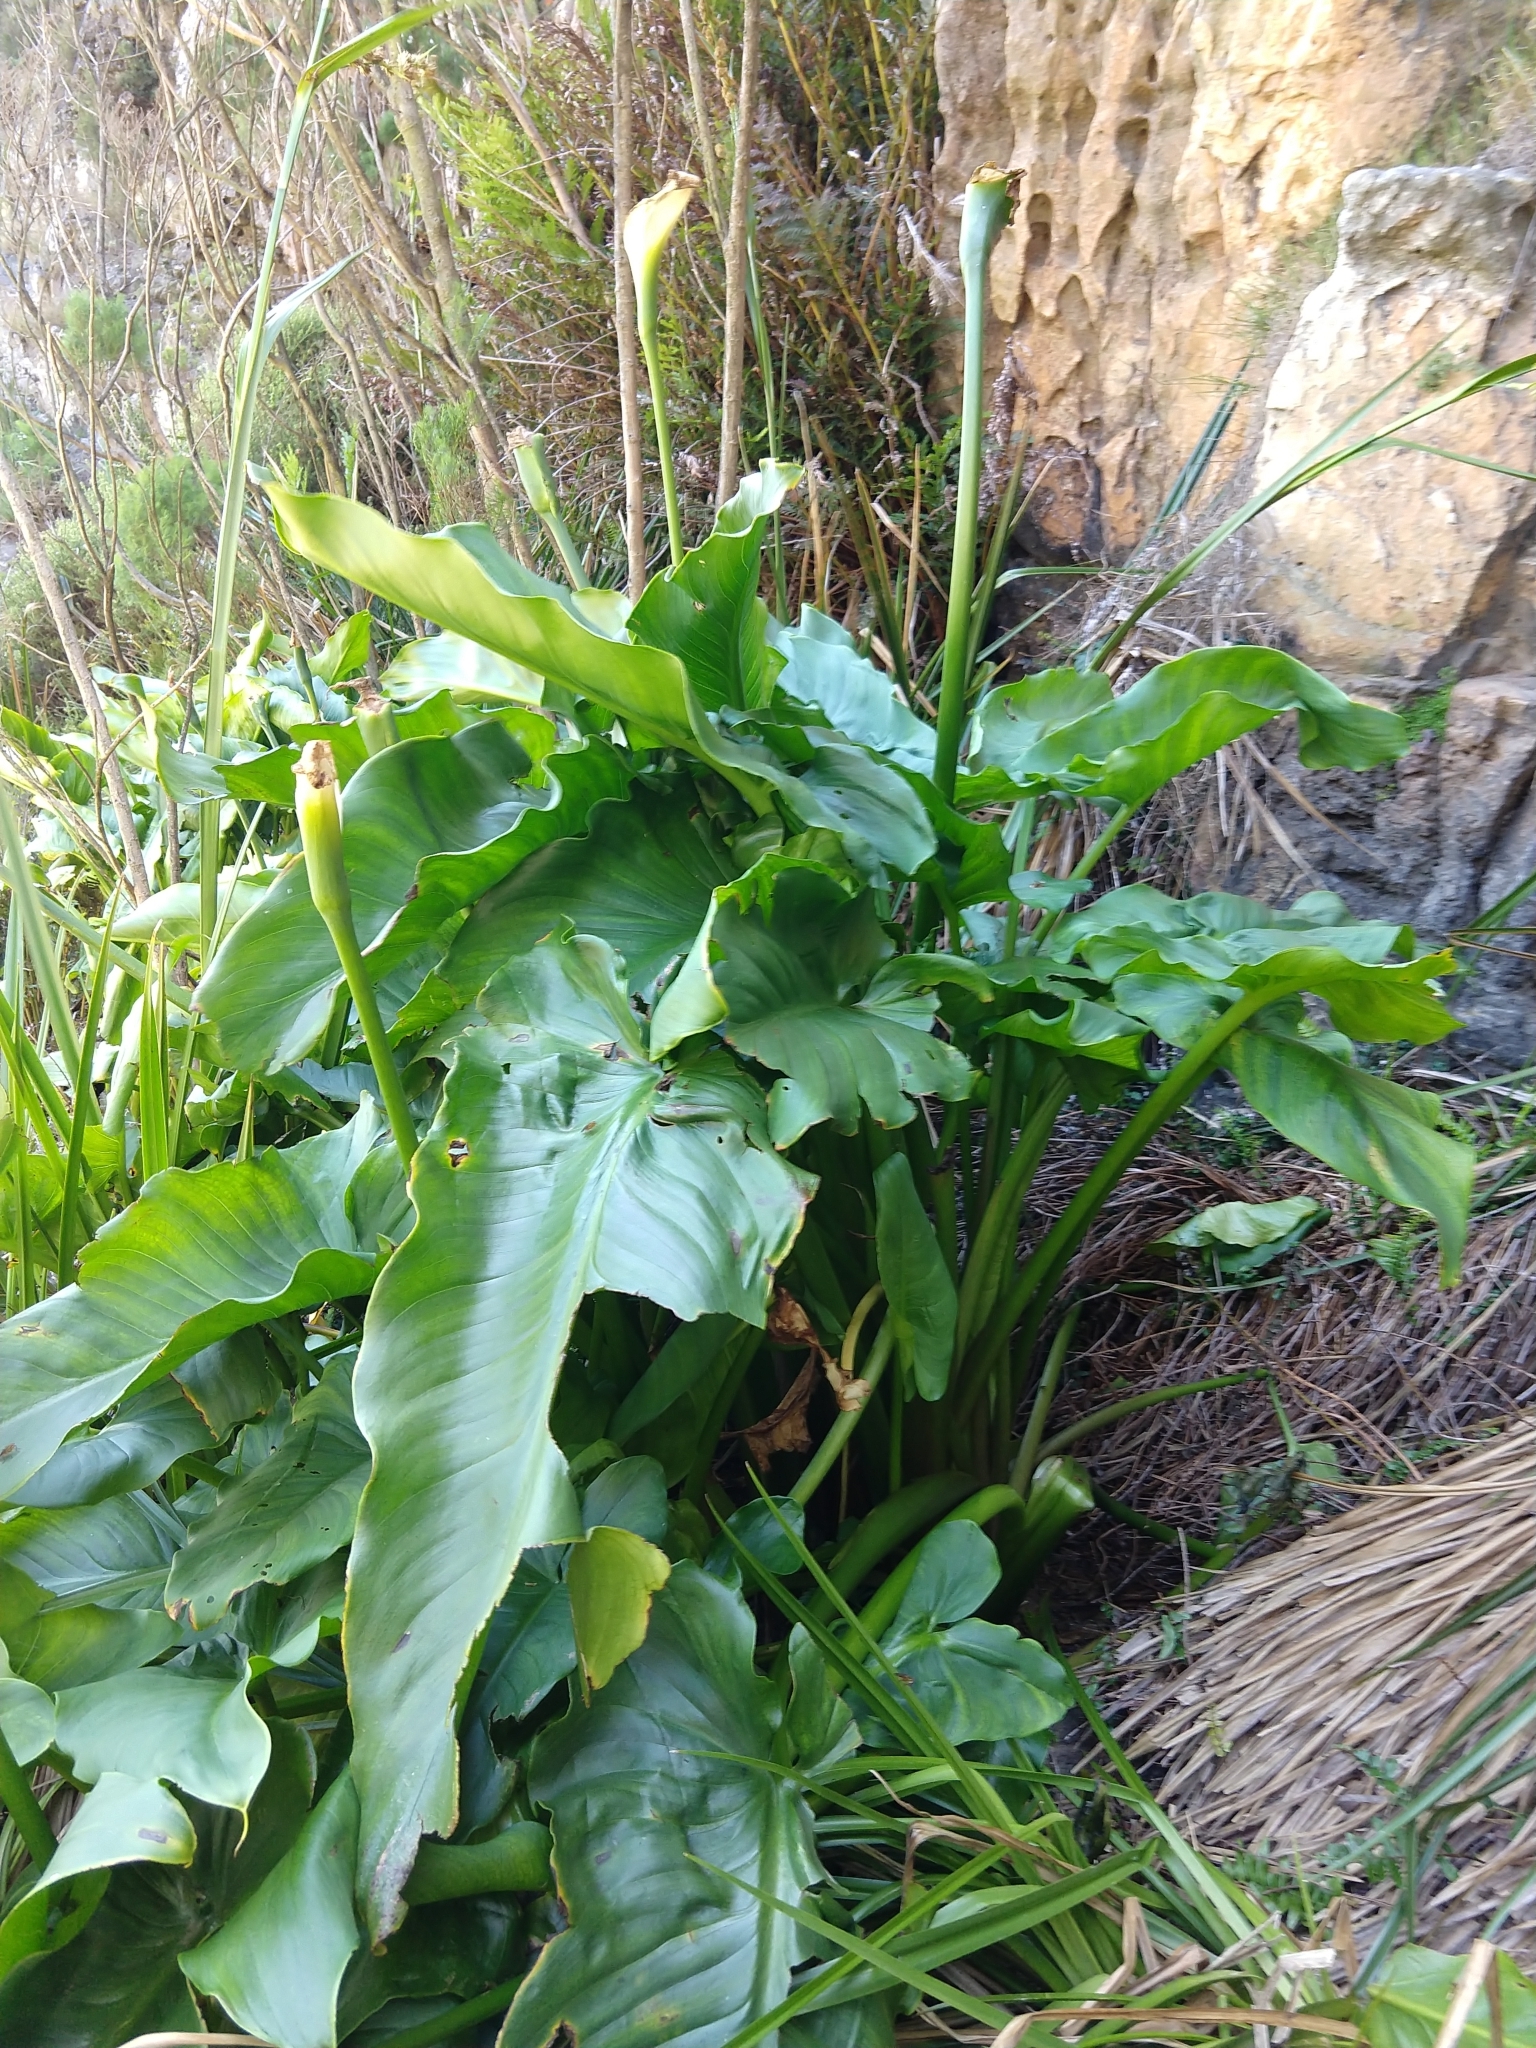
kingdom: Plantae
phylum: Tracheophyta
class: Liliopsida
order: Alismatales
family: Araceae
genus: Zantedeschia
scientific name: Zantedeschia aethiopica
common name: Altar-lily
